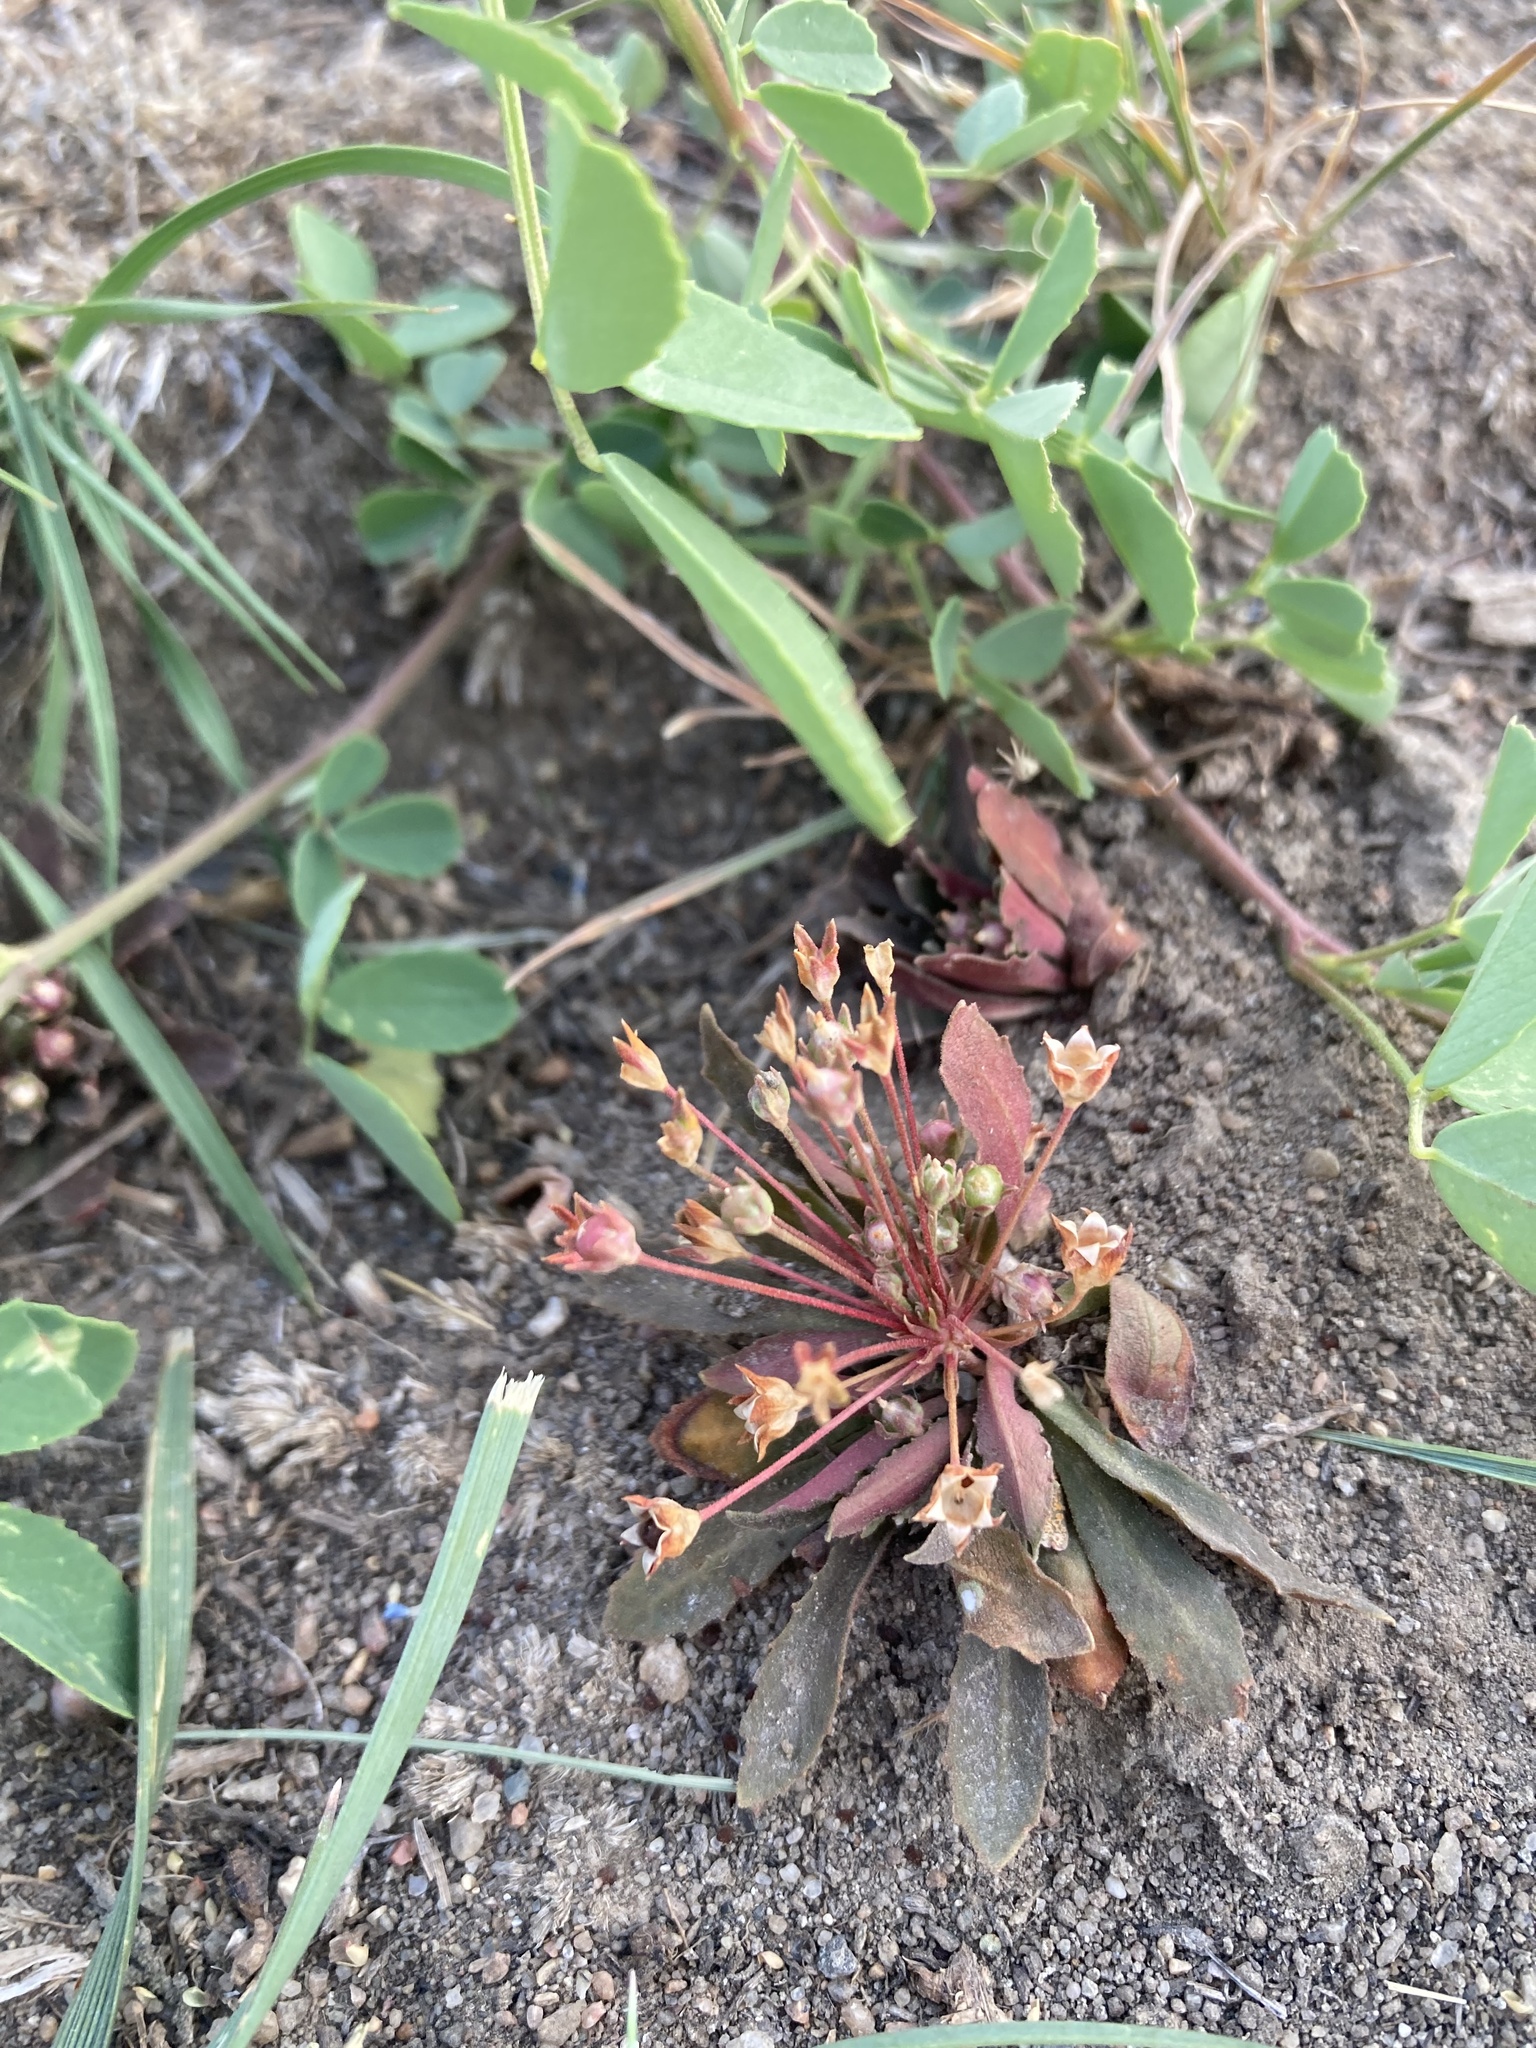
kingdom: Plantae
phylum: Tracheophyta
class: Magnoliopsida
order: Ericales
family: Primulaceae
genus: Androsace
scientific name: Androsace septentrionalis
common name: Hairy northern fairy-candelabra
